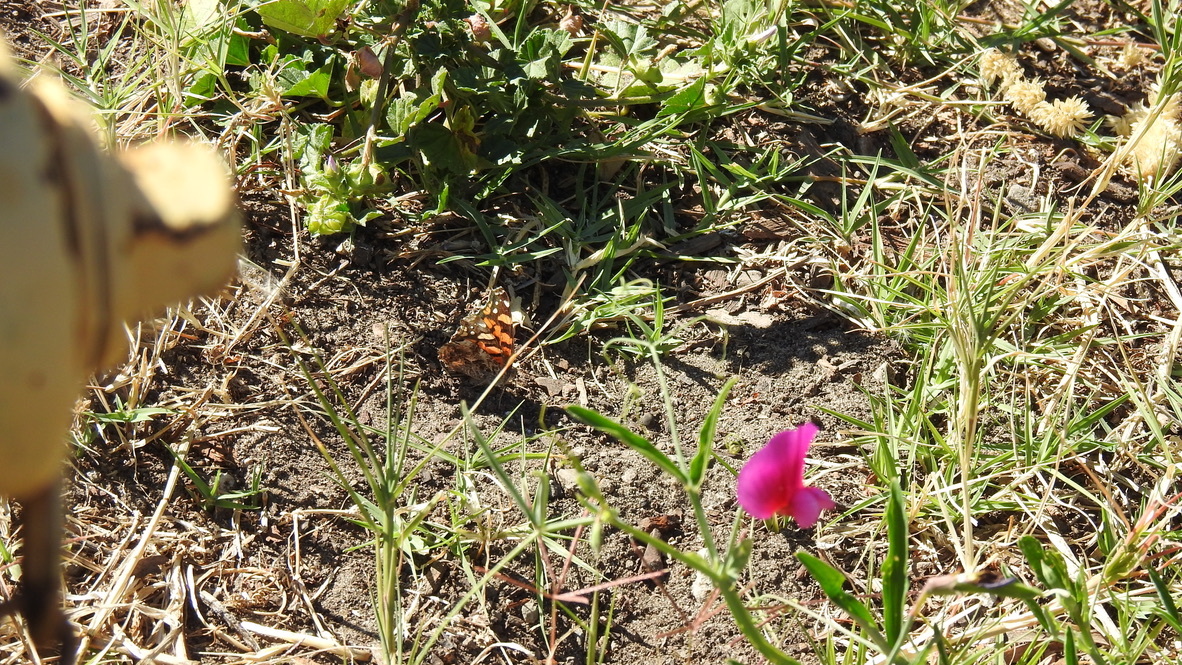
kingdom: Plantae
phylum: Tracheophyta
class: Magnoliopsida
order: Fabales
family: Fabaceae
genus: Lathyrus
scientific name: Lathyrus tingitanus
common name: Tangier pea
